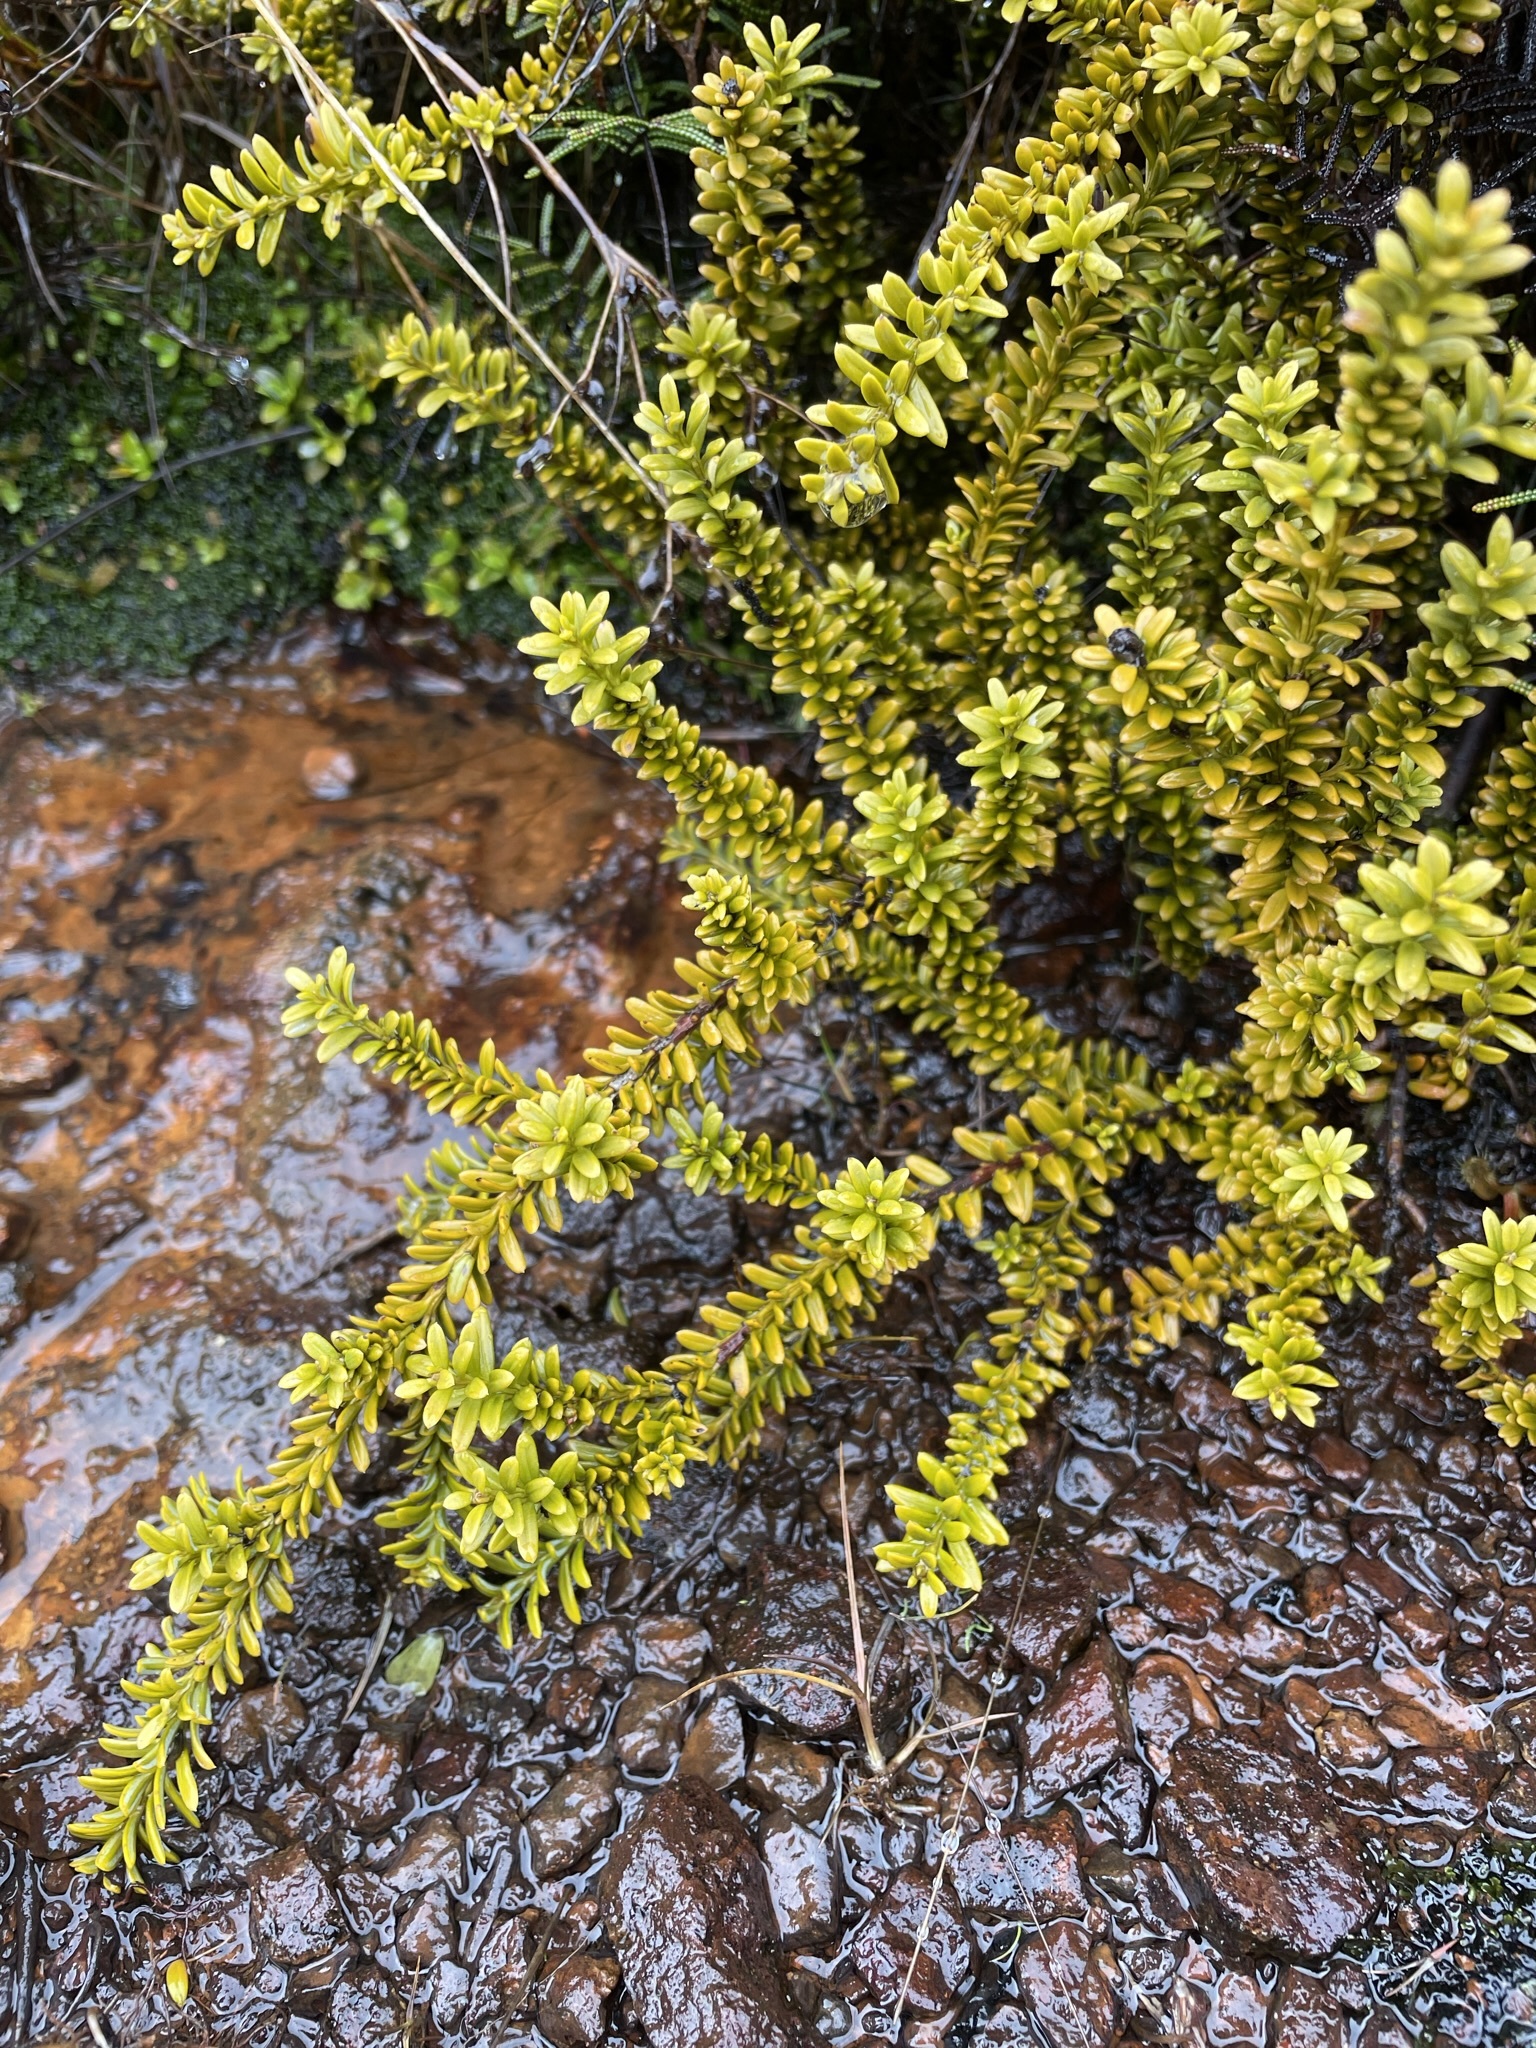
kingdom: Plantae
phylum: Tracheophyta
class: Pinopsida
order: Pinales
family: Podocarpaceae
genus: Podocarpus
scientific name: Podocarpus nivalis
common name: Alpine totara
